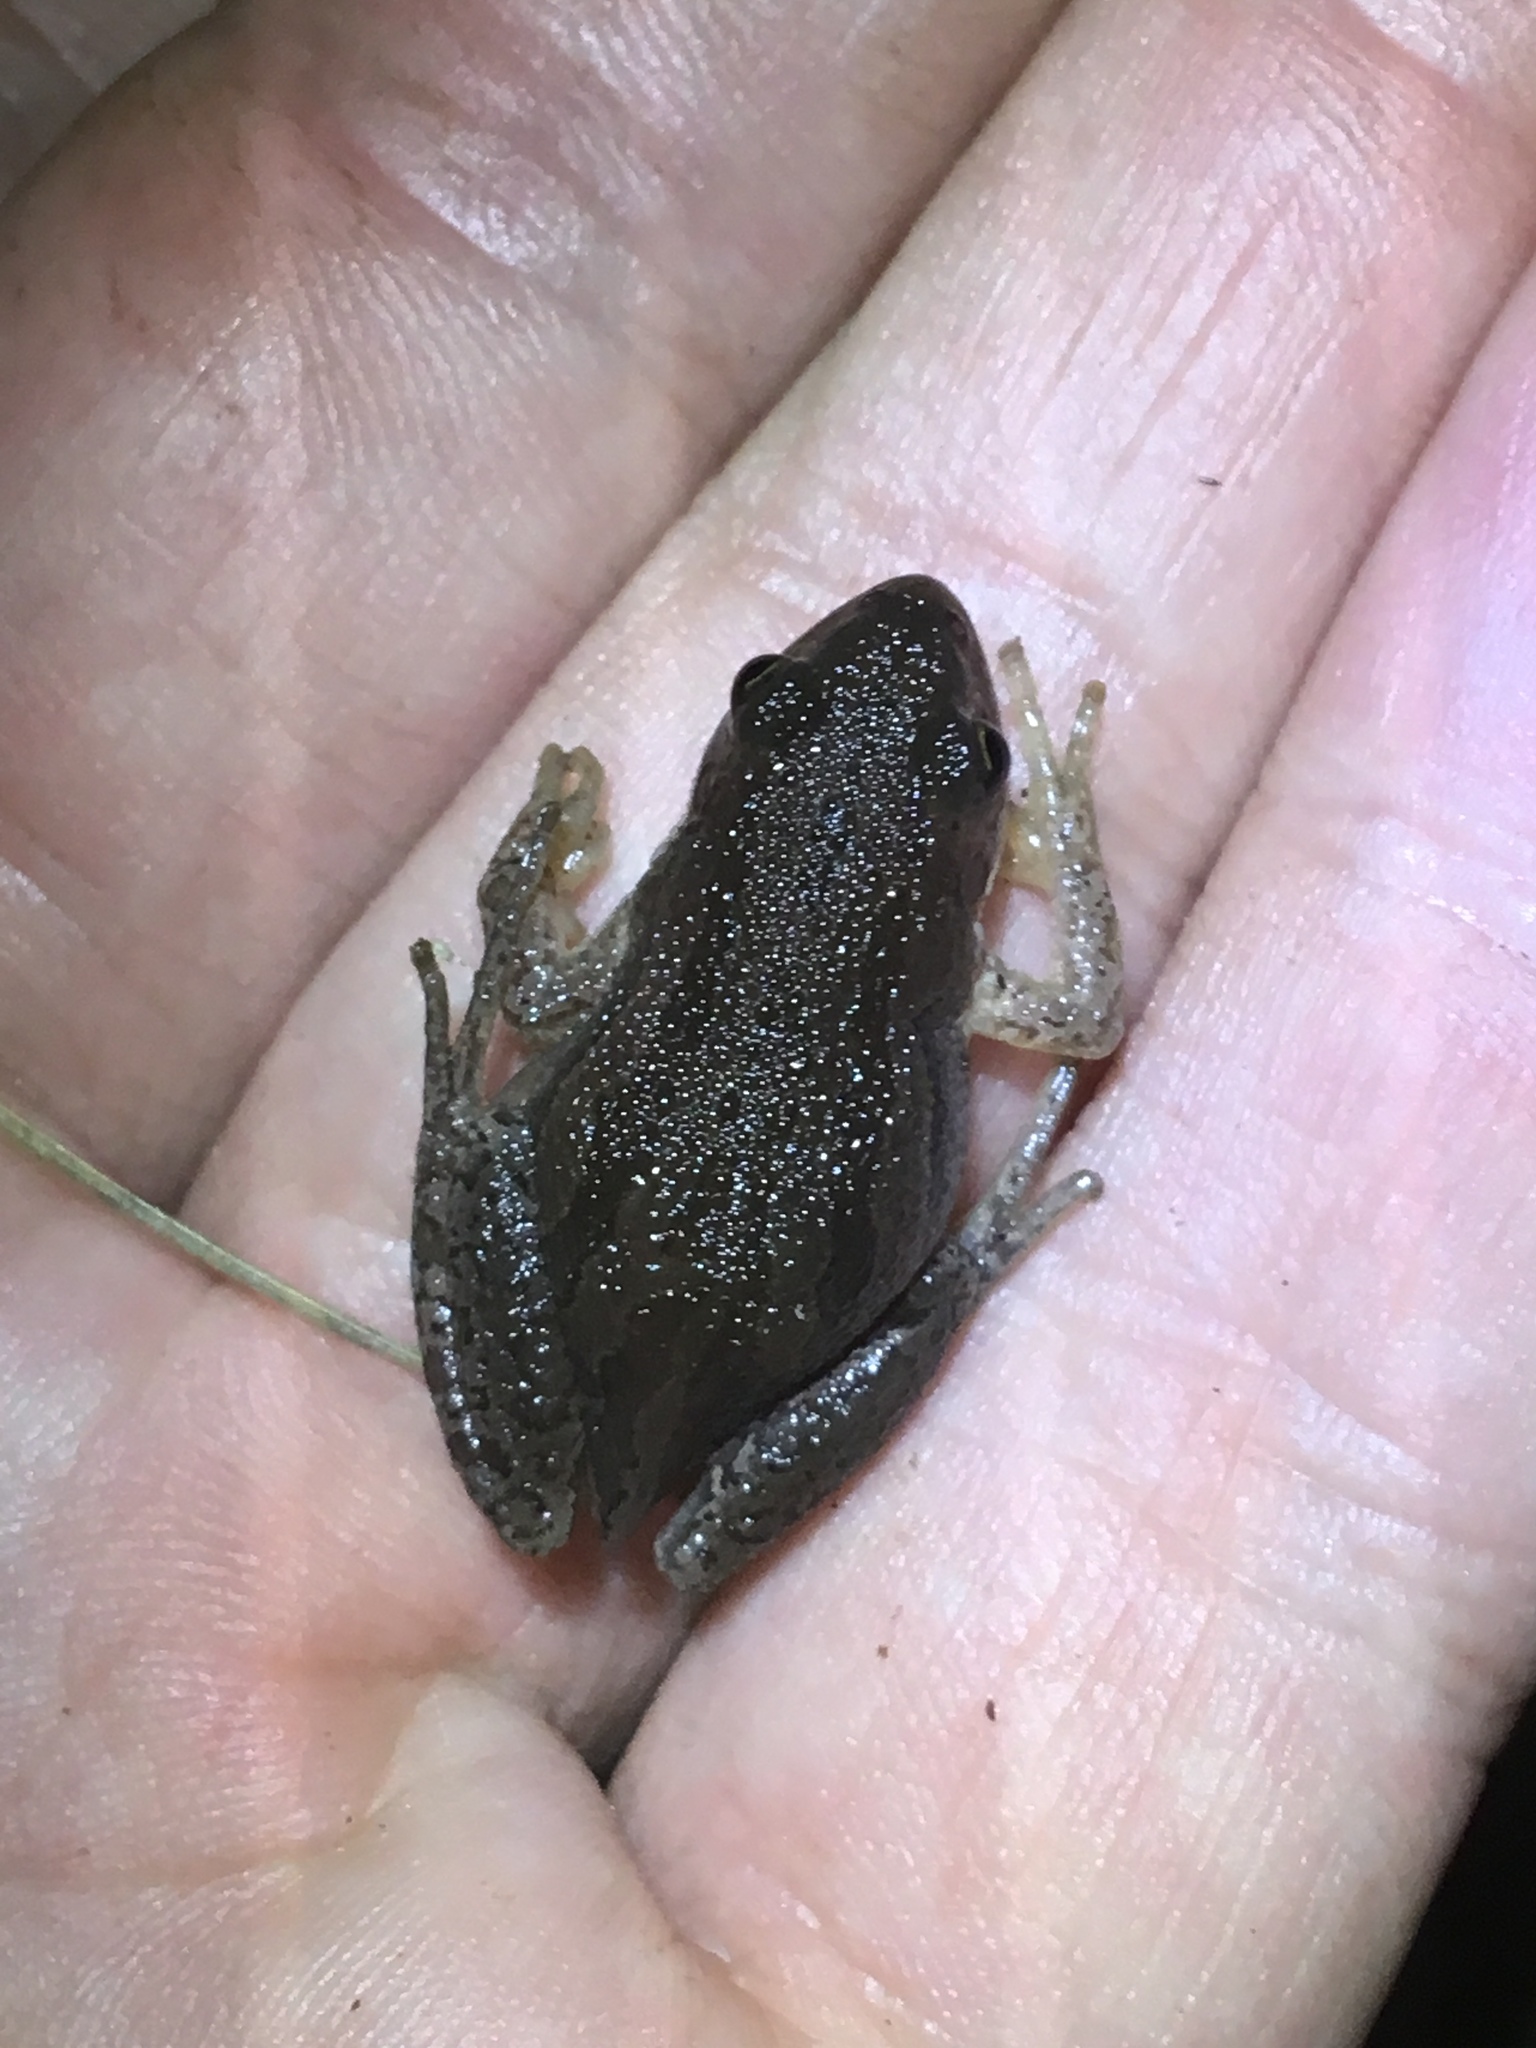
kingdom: Animalia
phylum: Chordata
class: Amphibia
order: Anura
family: Hylidae
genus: Pseudacris
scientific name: Pseudacris maculata
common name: Boreal chorus frog
